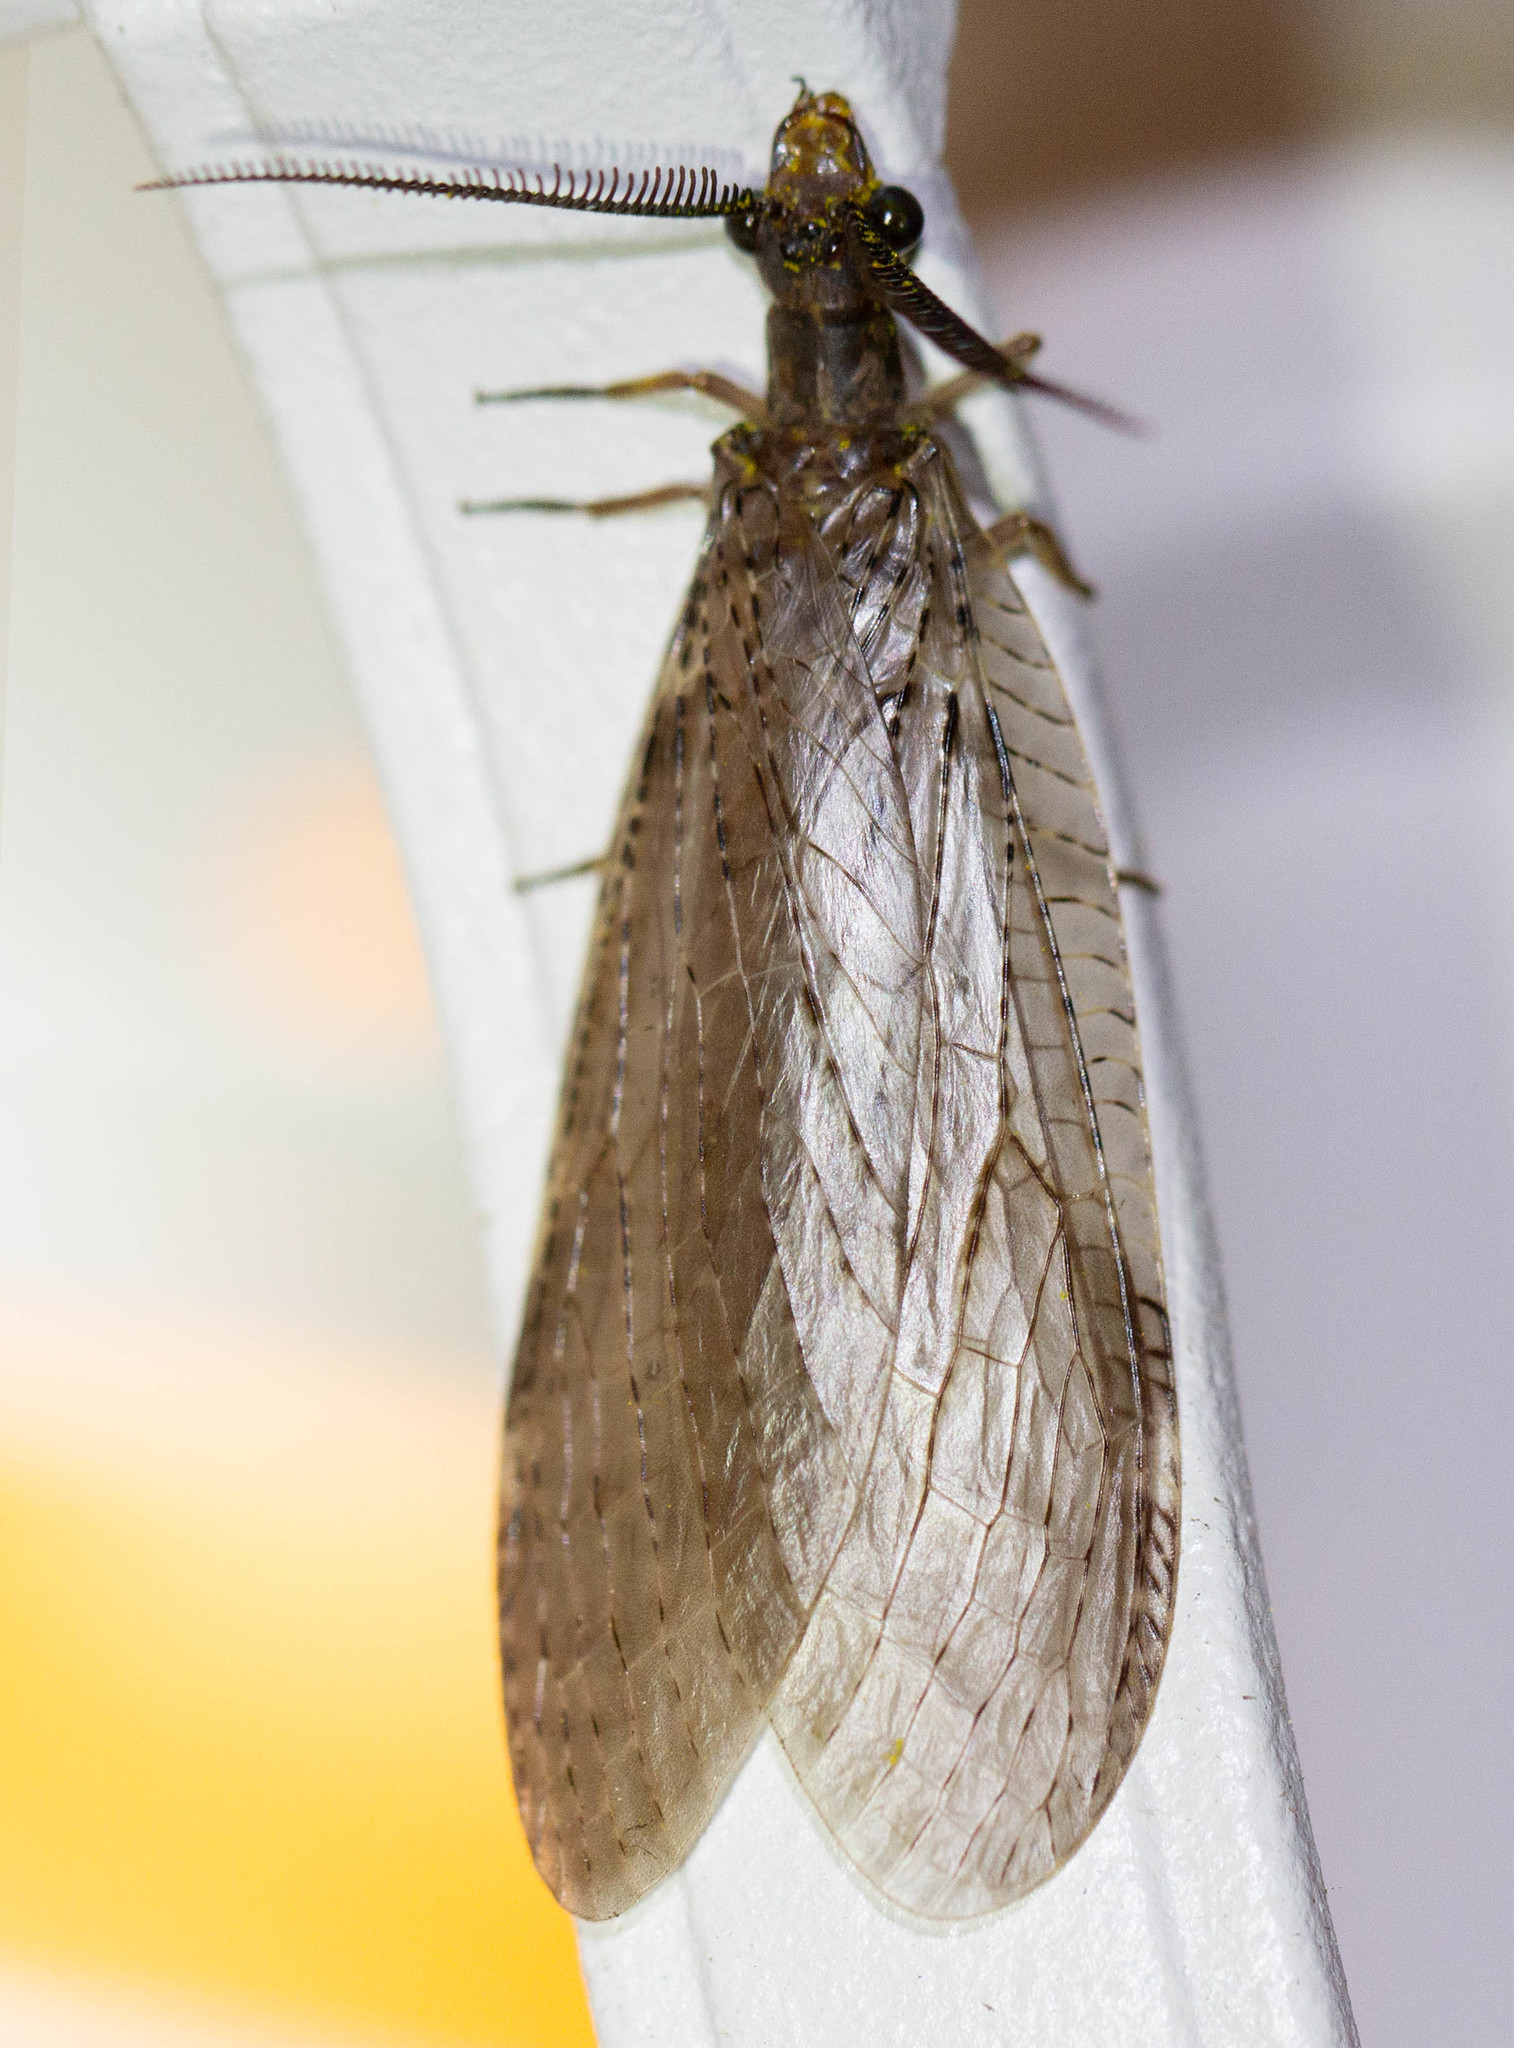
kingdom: Animalia
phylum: Arthropoda
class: Insecta
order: Megaloptera
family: Corydalidae
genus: Chauliodes
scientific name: Chauliodes pectinicornis
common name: Summer fishfly
